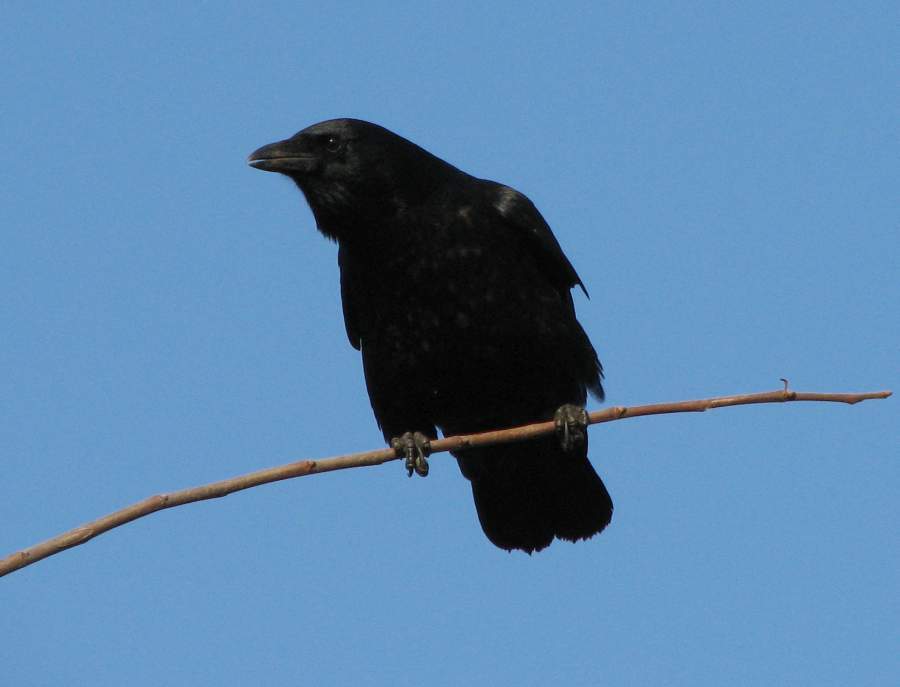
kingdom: Animalia
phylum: Chordata
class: Aves
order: Passeriformes
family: Corvidae
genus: Corvus
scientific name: Corvus brachyrhynchos
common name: American crow
